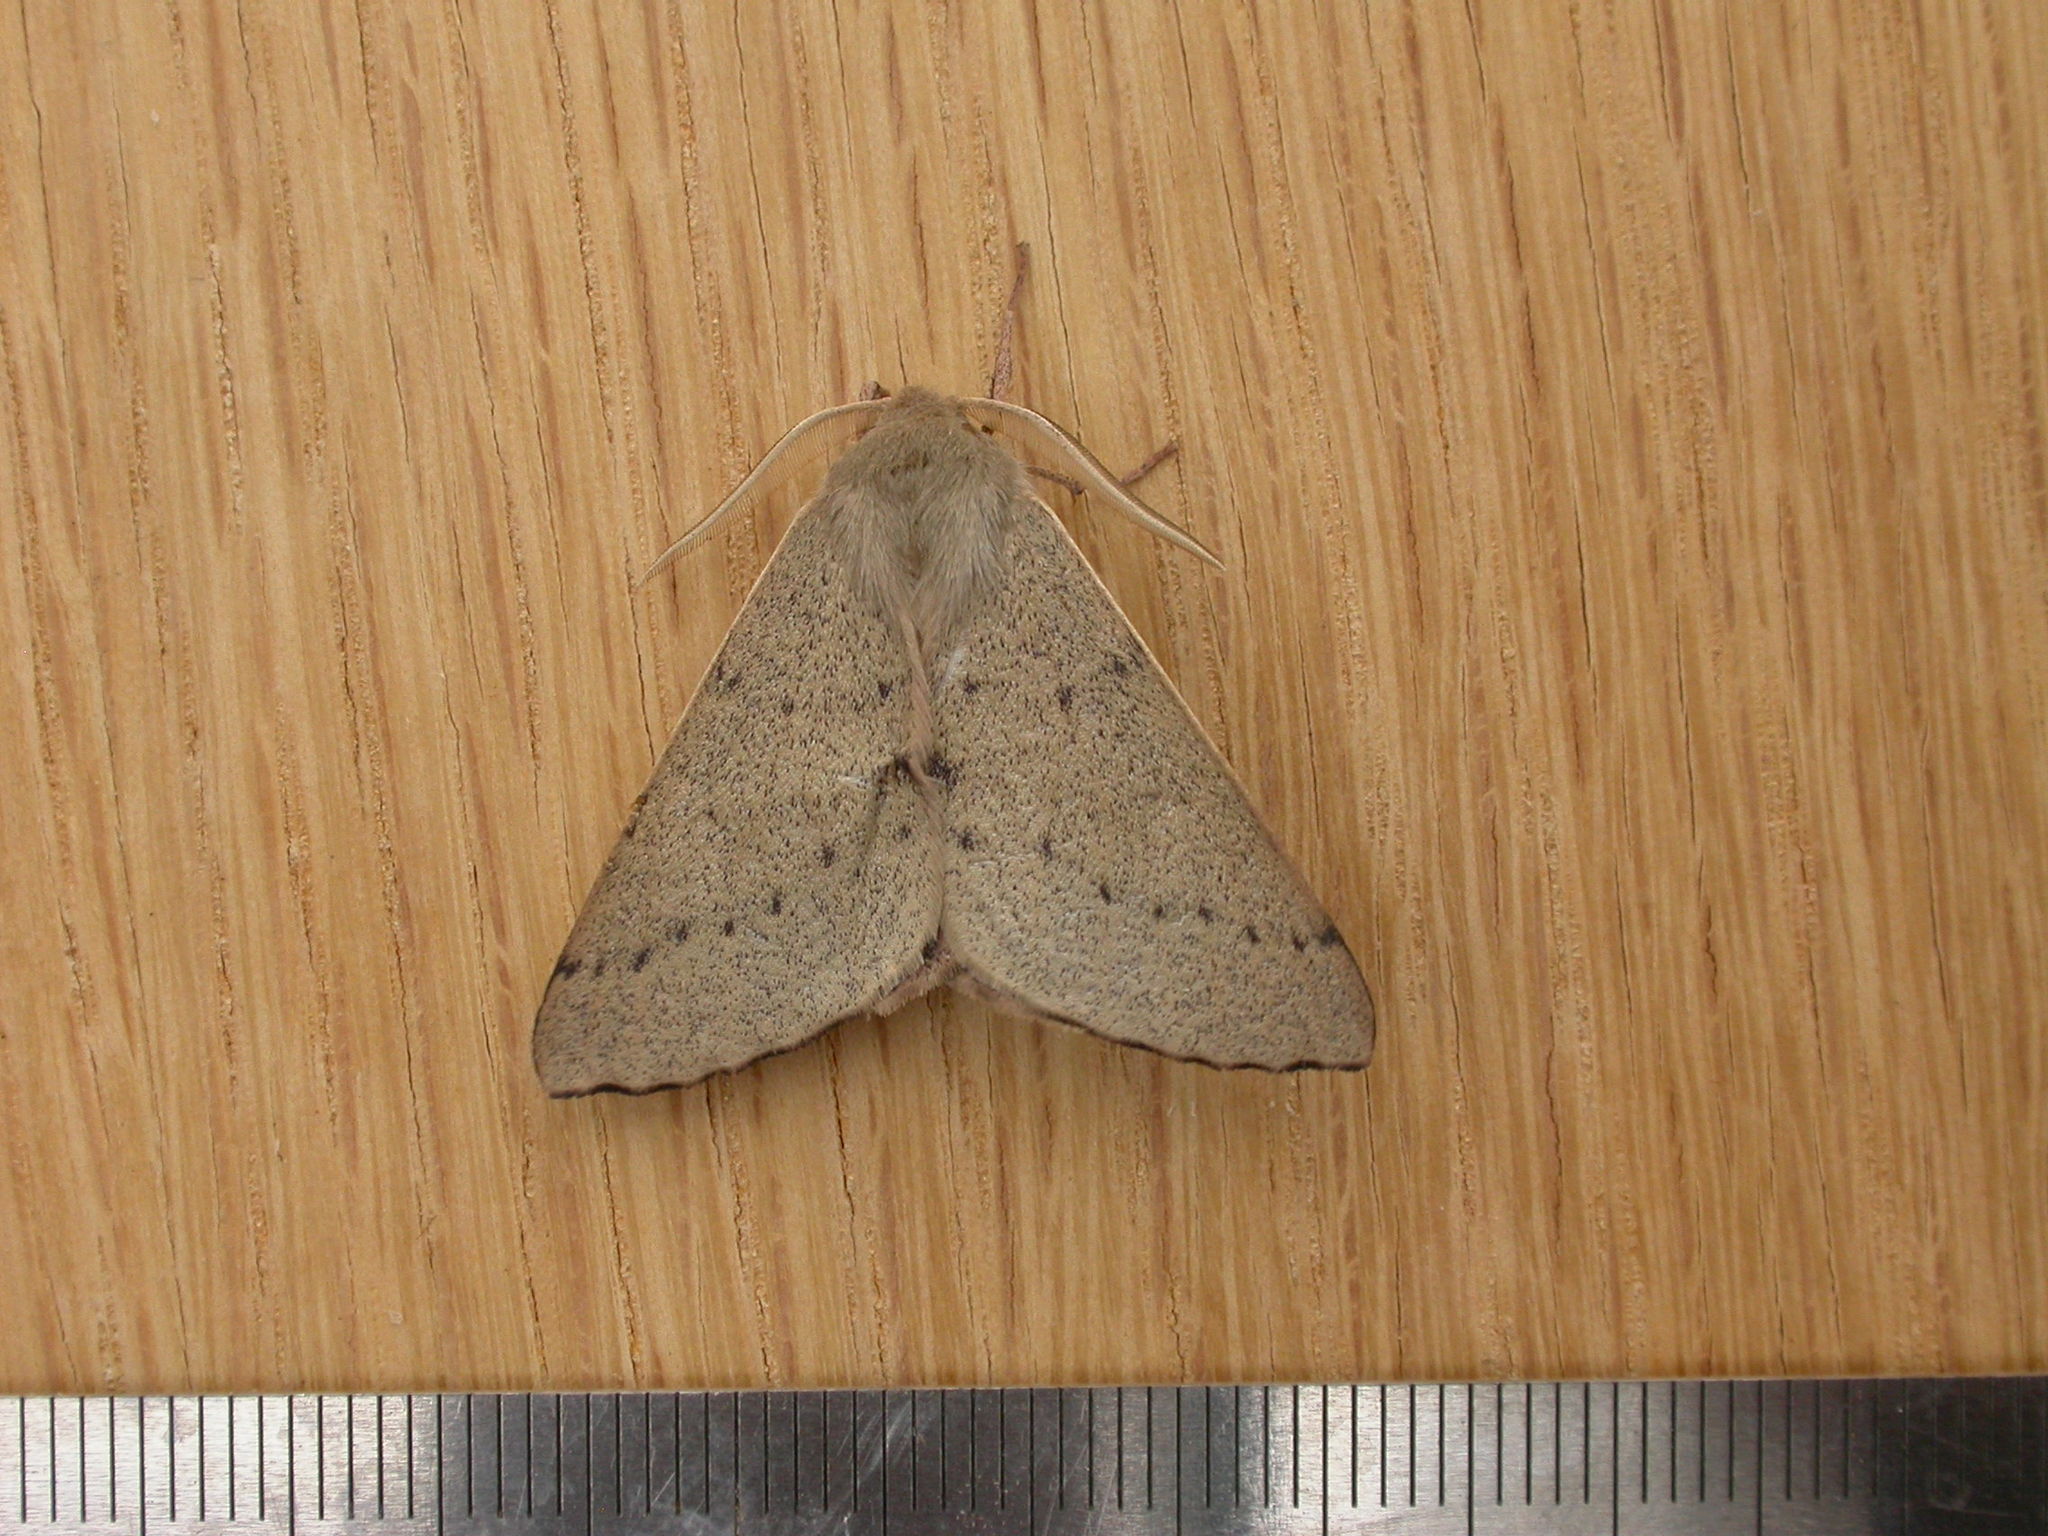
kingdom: Animalia
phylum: Arthropoda
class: Insecta
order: Lepidoptera
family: Geometridae
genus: Arhodia
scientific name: Arhodia lasiocamparia
